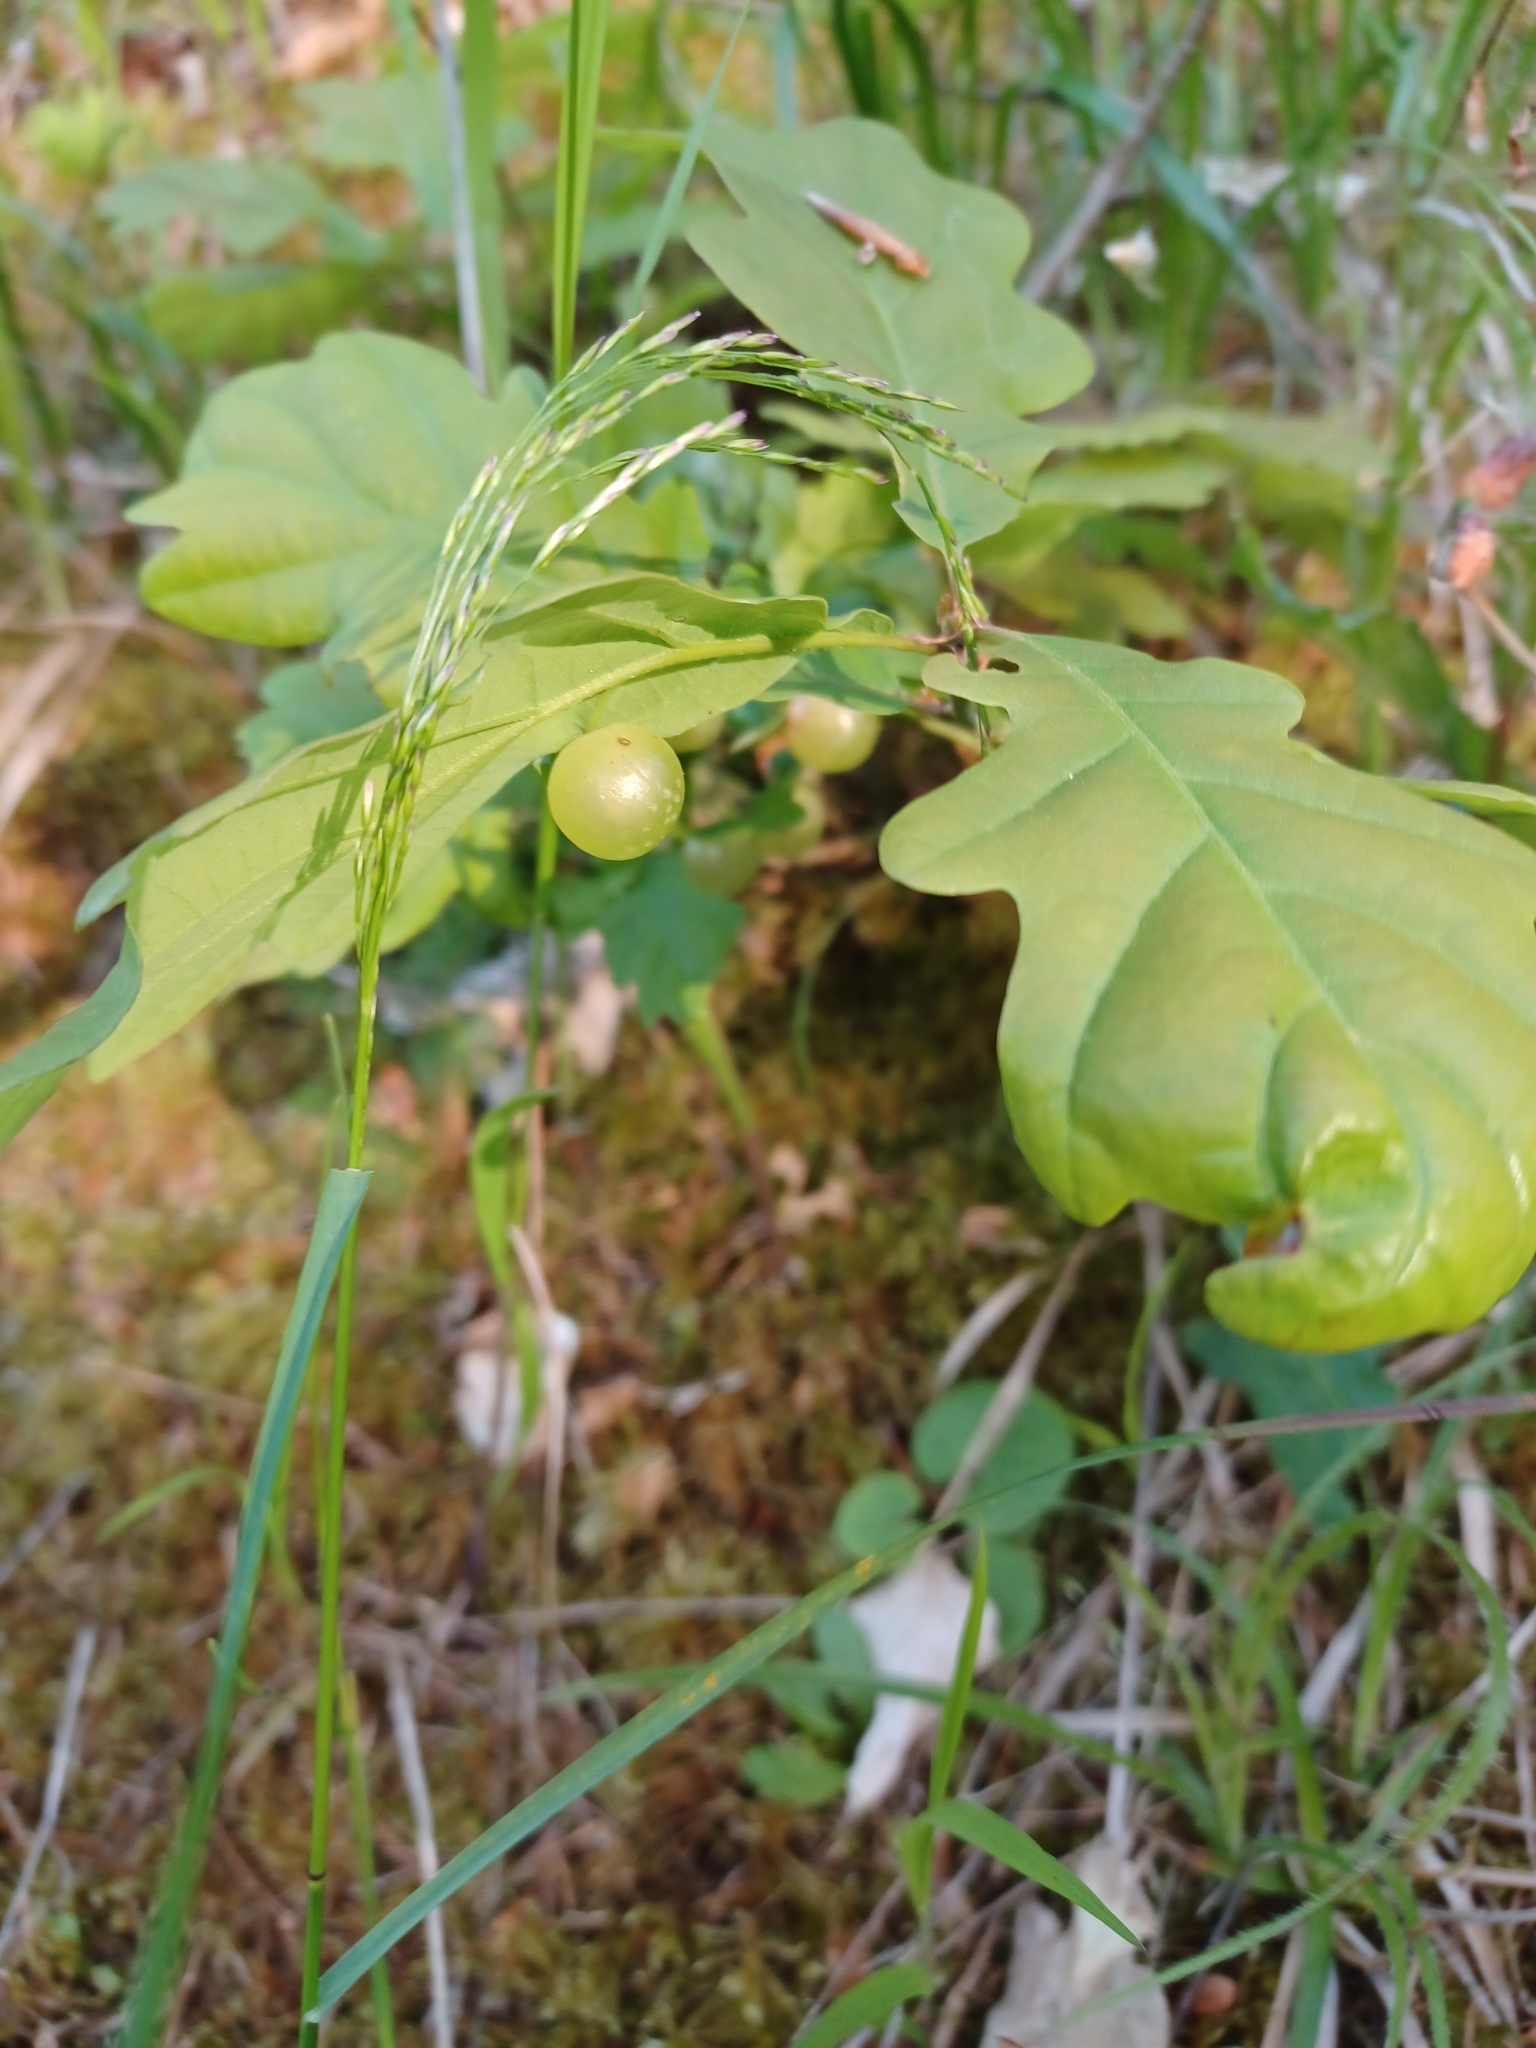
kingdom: Animalia
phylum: Arthropoda
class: Insecta
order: Hymenoptera
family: Cynipidae
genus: Neuroterus
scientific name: Neuroterus quercusbaccarum
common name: Common spangle gall
